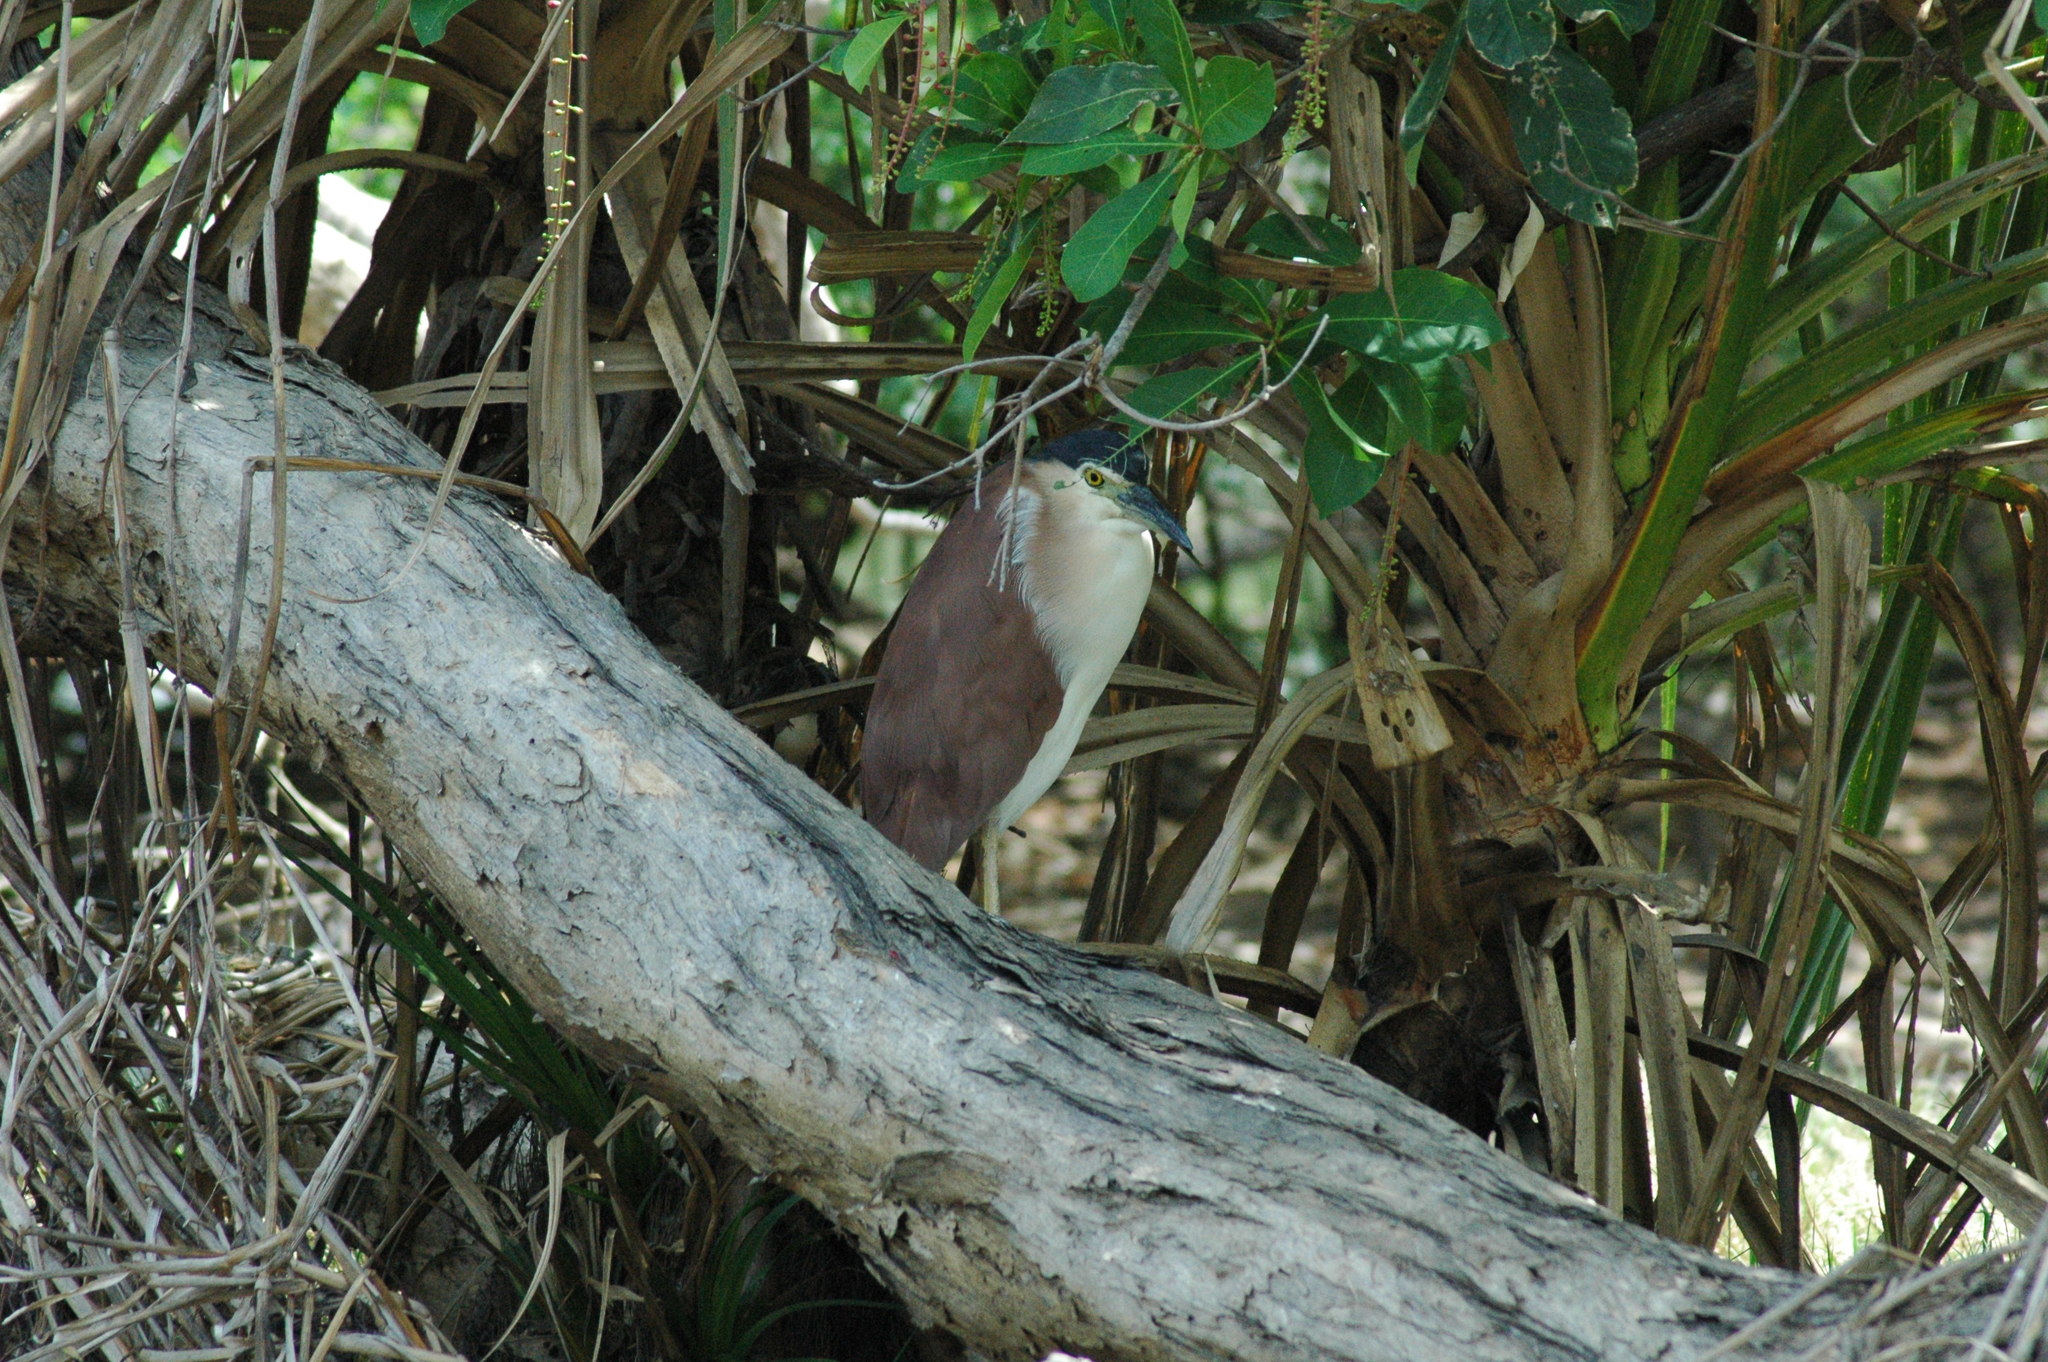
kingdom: Animalia
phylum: Chordata
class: Aves
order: Pelecaniformes
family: Ardeidae
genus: Nycticorax
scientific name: Nycticorax caledonicus
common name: Rufous night-heron
